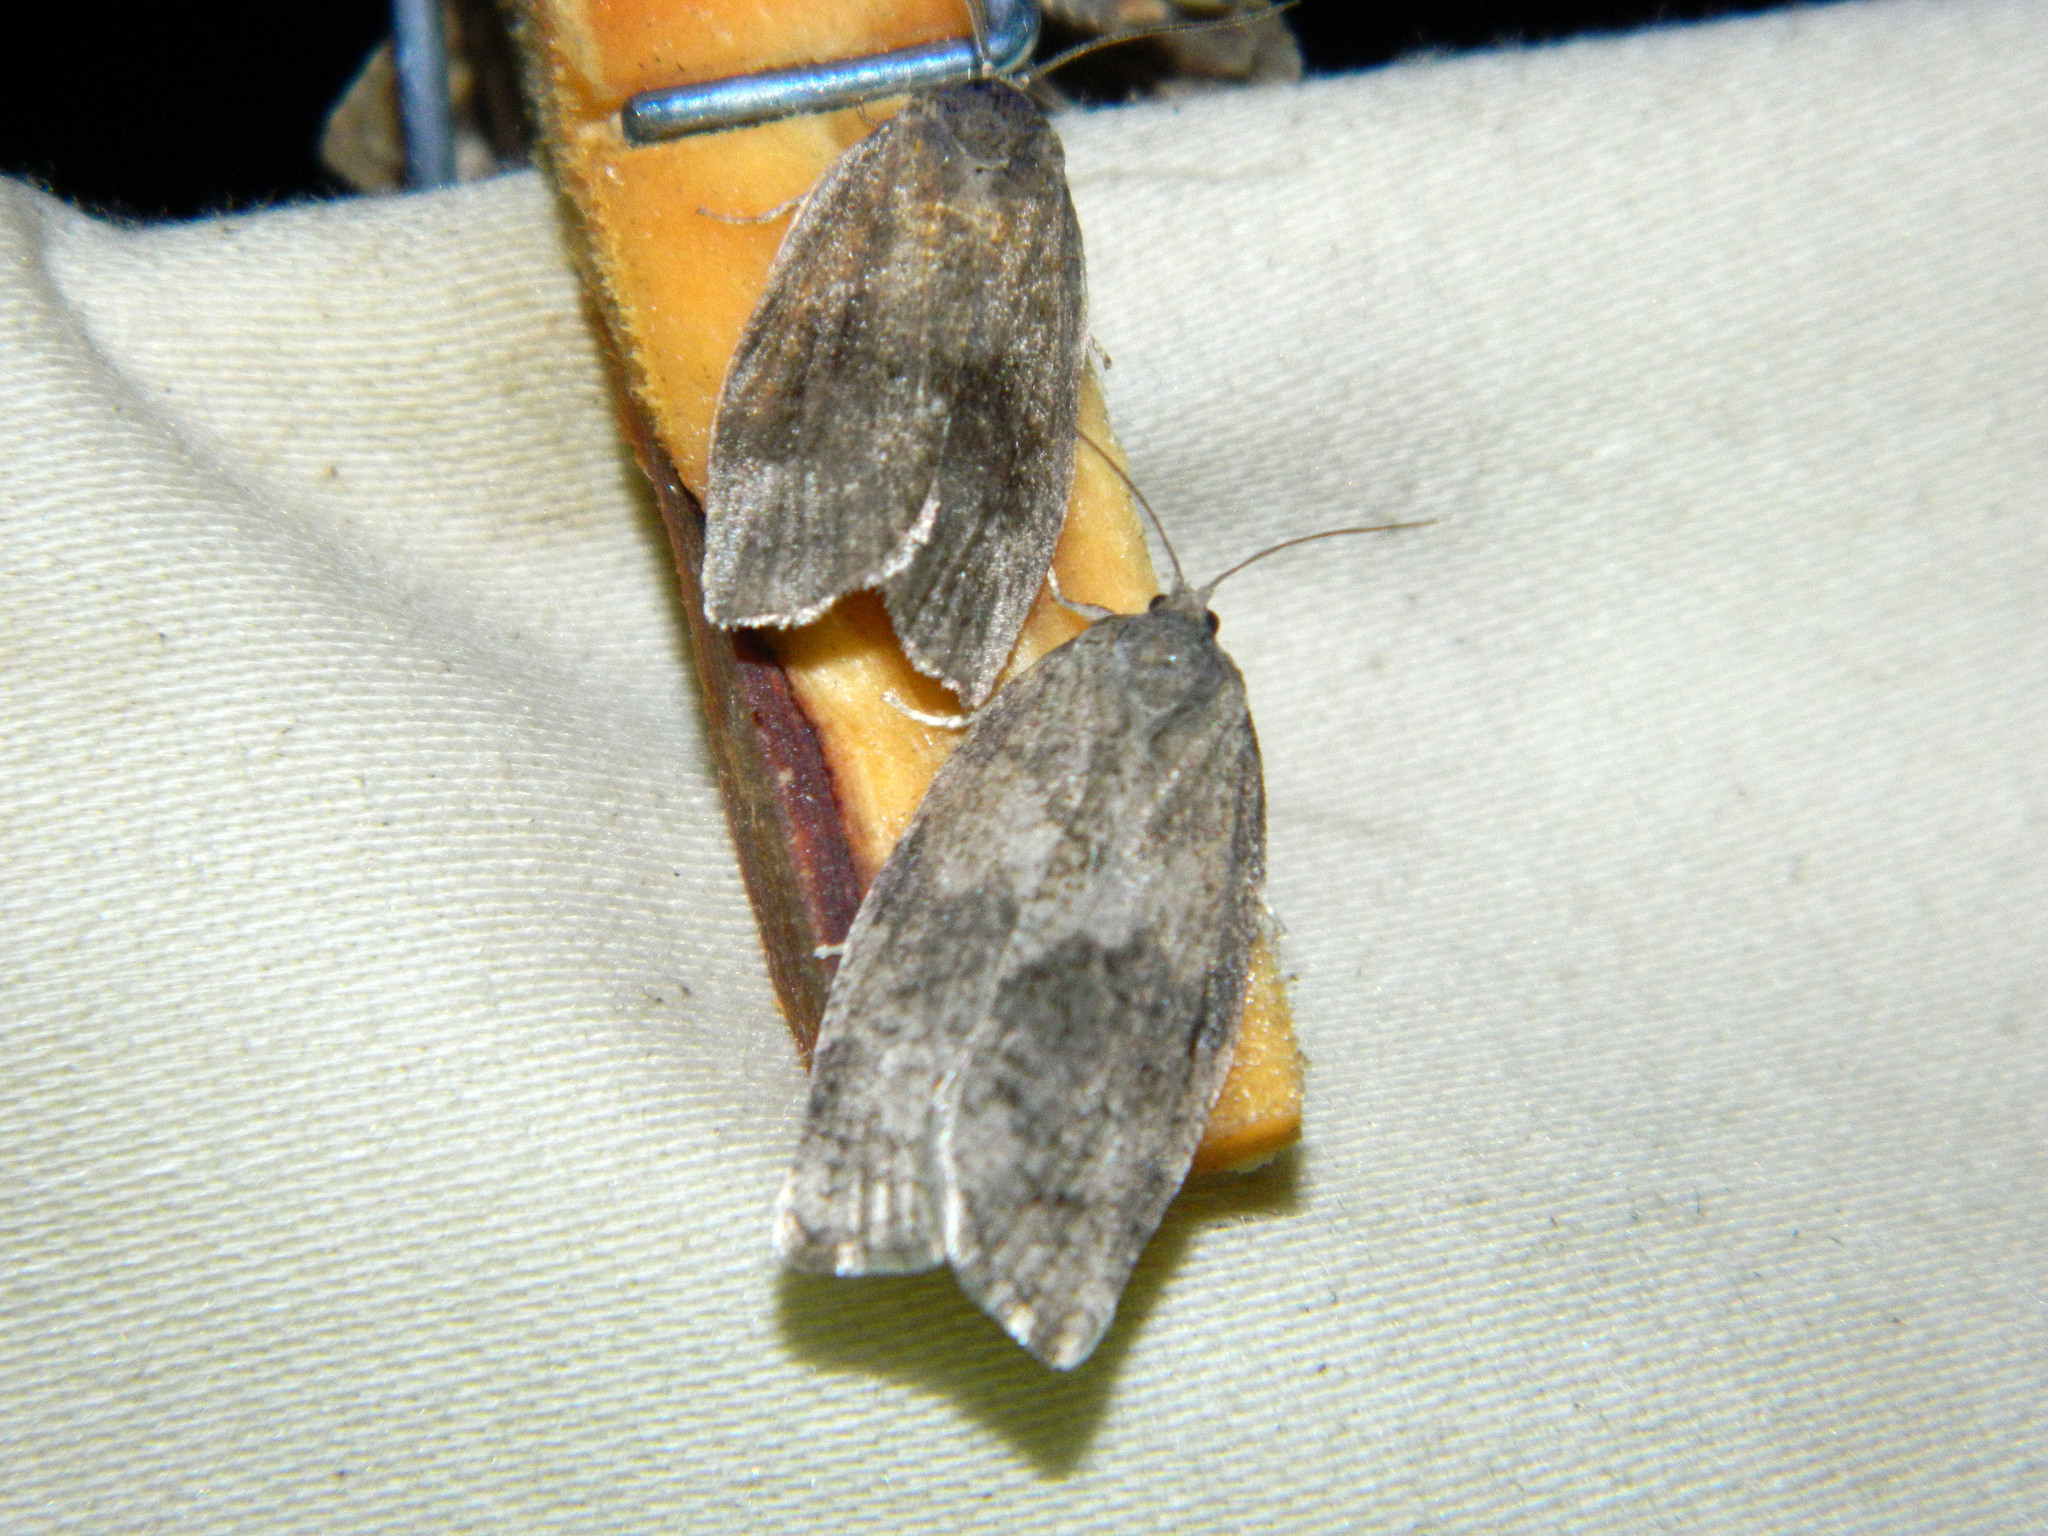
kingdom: Animalia
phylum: Arthropoda
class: Insecta
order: Lepidoptera
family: Tortricidae
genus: Choristoneura
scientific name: Choristoneura conflictana
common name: Large aspen tortrix
